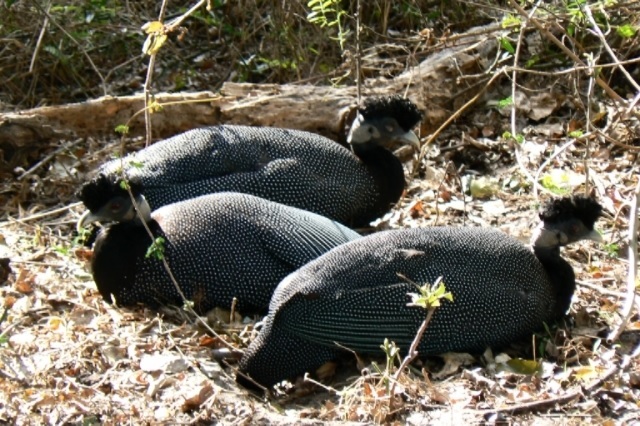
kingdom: Animalia
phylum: Chordata
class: Aves
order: Galliformes
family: Numididae
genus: Guttera
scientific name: Guttera pucherani
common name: Crested guineafowl
